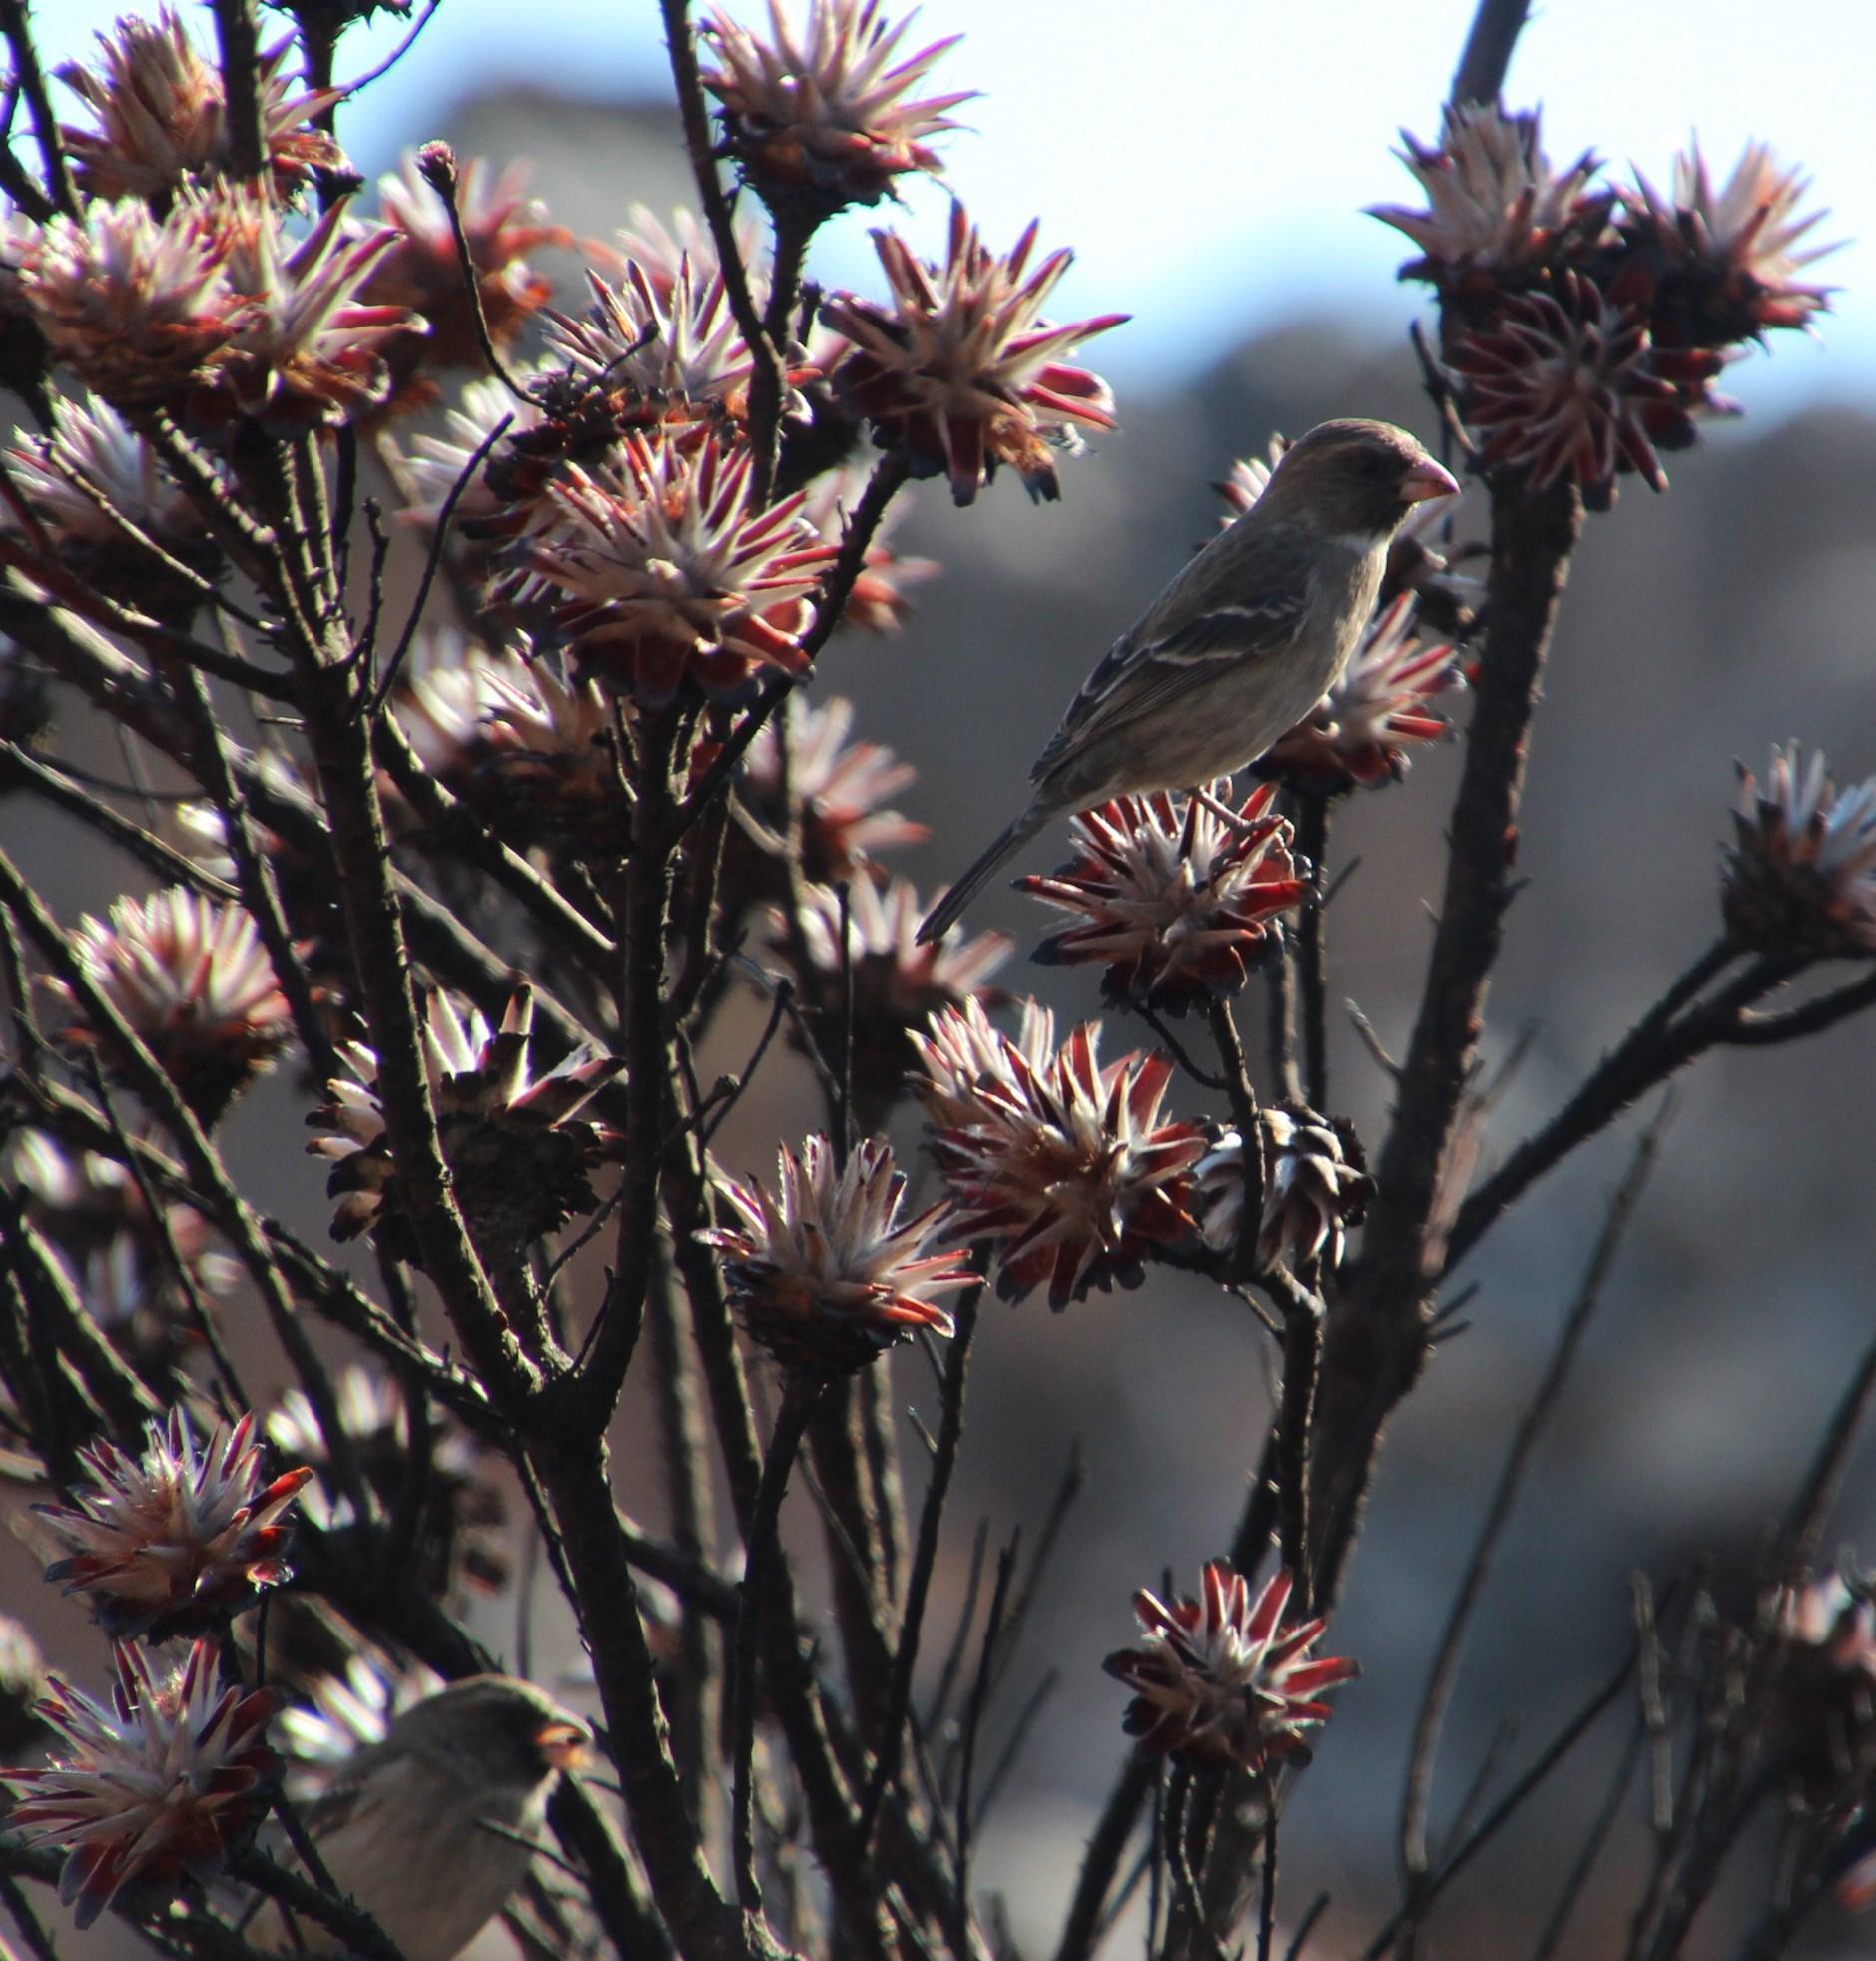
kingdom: Animalia
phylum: Chordata
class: Aves
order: Passeriformes
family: Fringillidae
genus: Crithagra
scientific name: Crithagra leucoptera
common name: Protea canary
